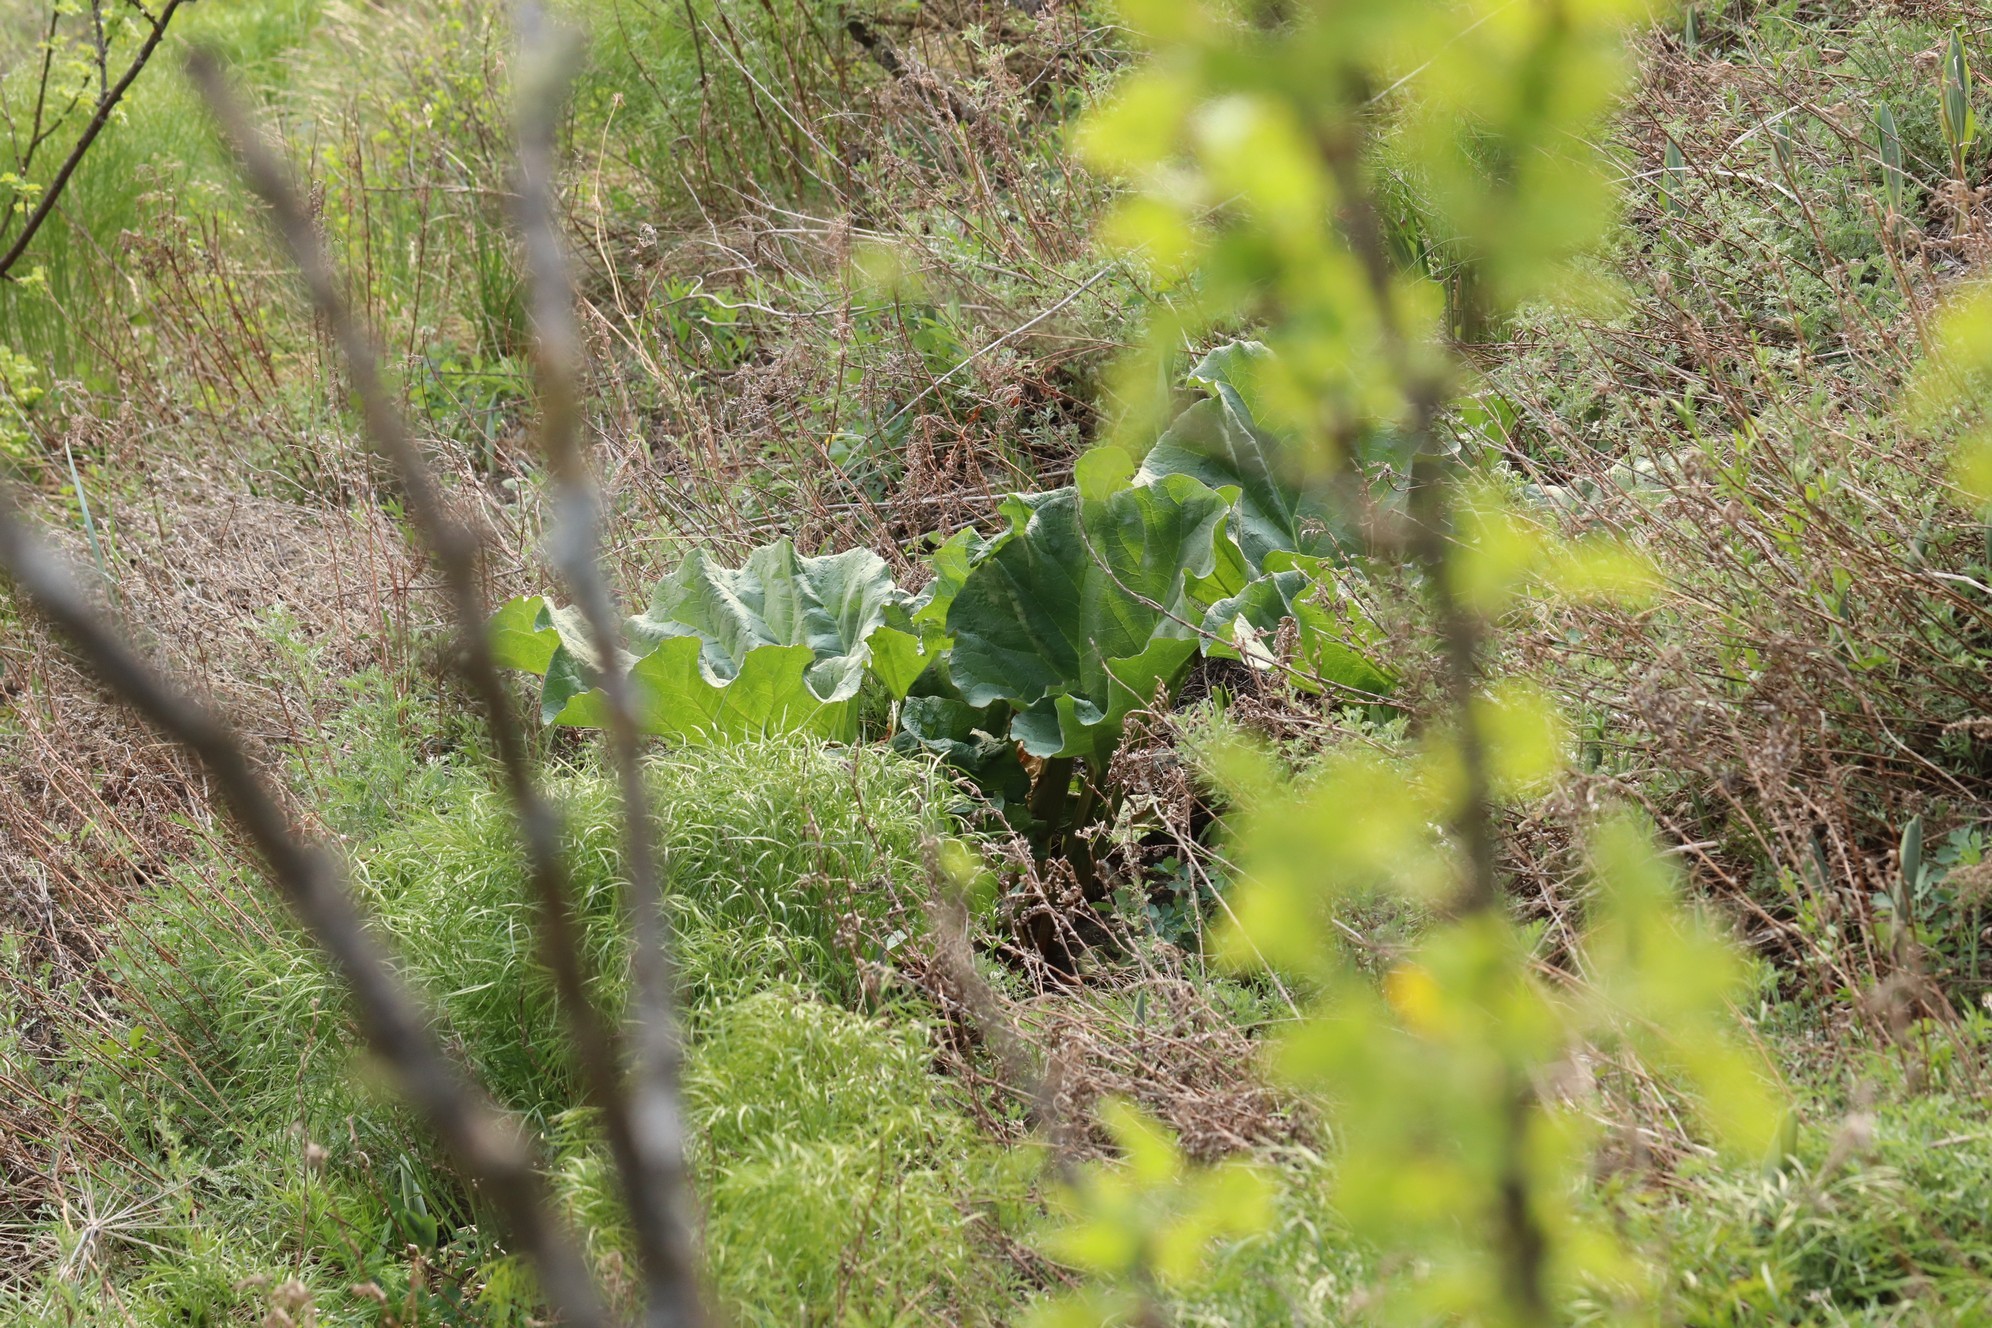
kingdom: Plantae
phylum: Tracheophyta
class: Magnoliopsida
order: Caryophyllales
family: Polygonaceae
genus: Rheum
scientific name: Rheum compactum
